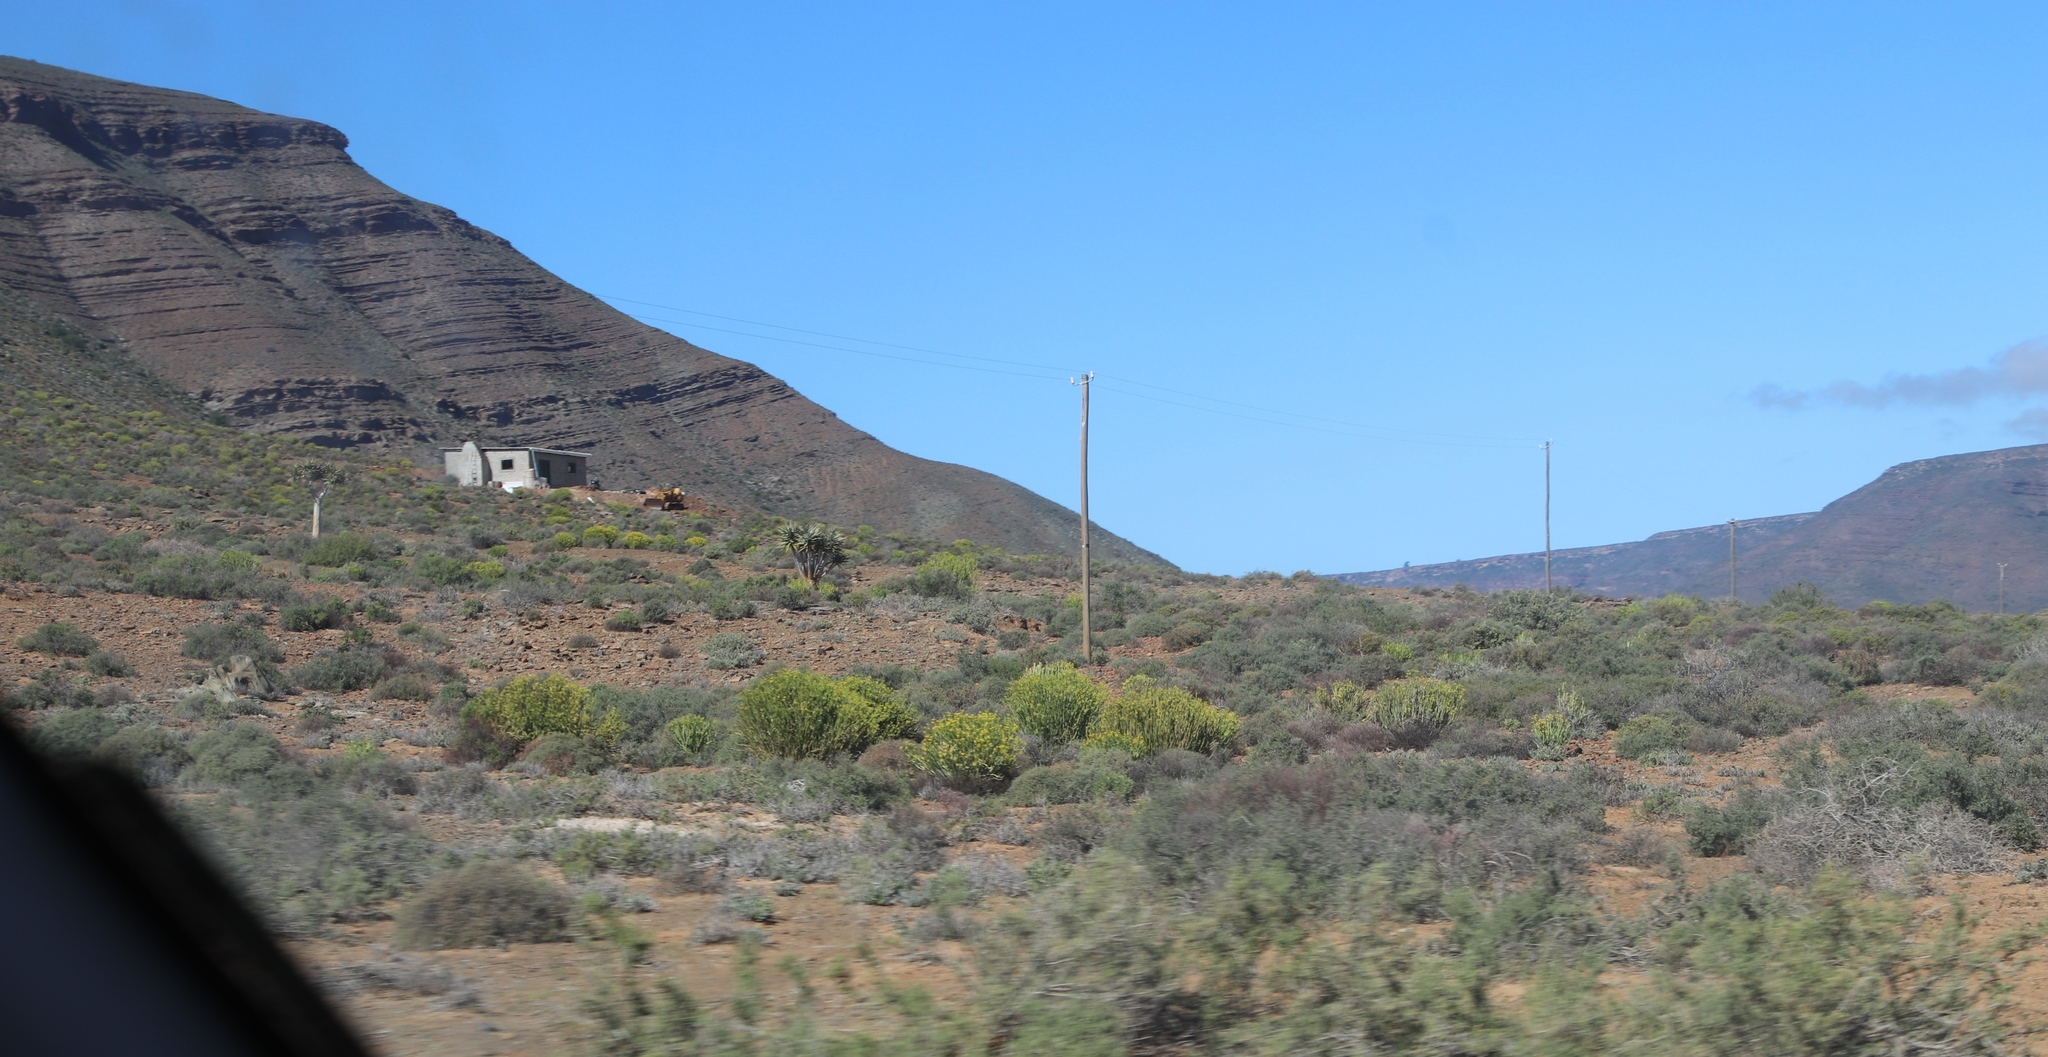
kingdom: Plantae
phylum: Tracheophyta
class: Magnoliopsida
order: Malpighiales
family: Euphorbiaceae
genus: Euphorbia
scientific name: Euphorbia mauritanica
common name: Jackal's-food
